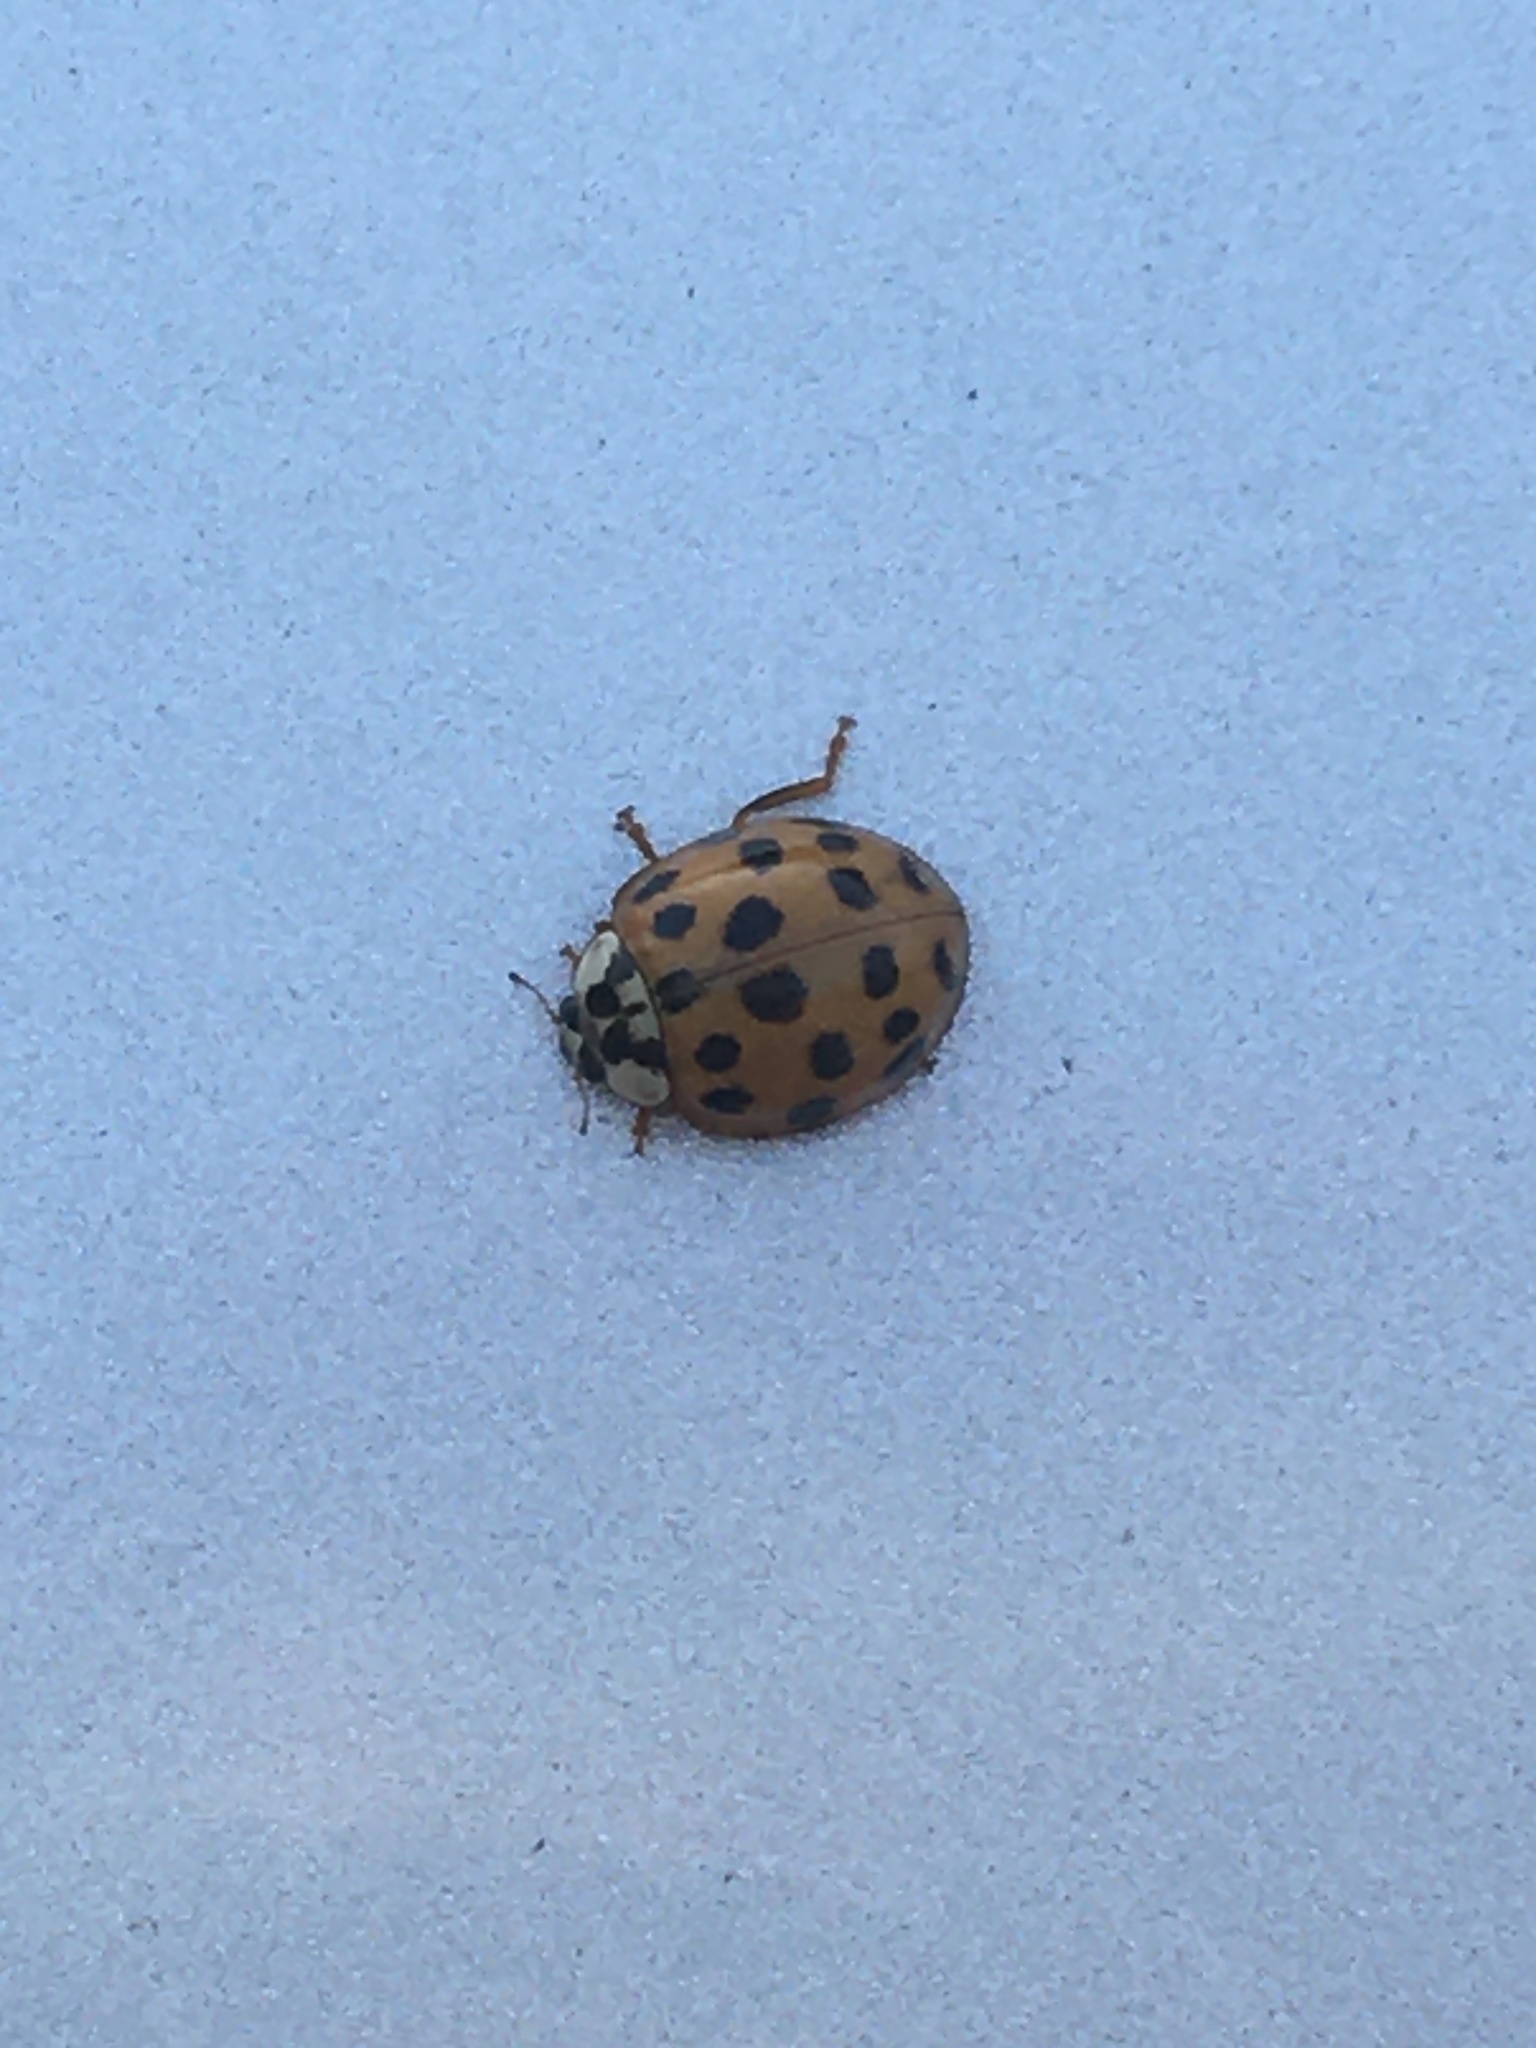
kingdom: Animalia
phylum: Arthropoda
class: Insecta
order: Coleoptera
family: Coccinellidae
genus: Harmonia
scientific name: Harmonia axyridis
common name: Harlequin ladybird
